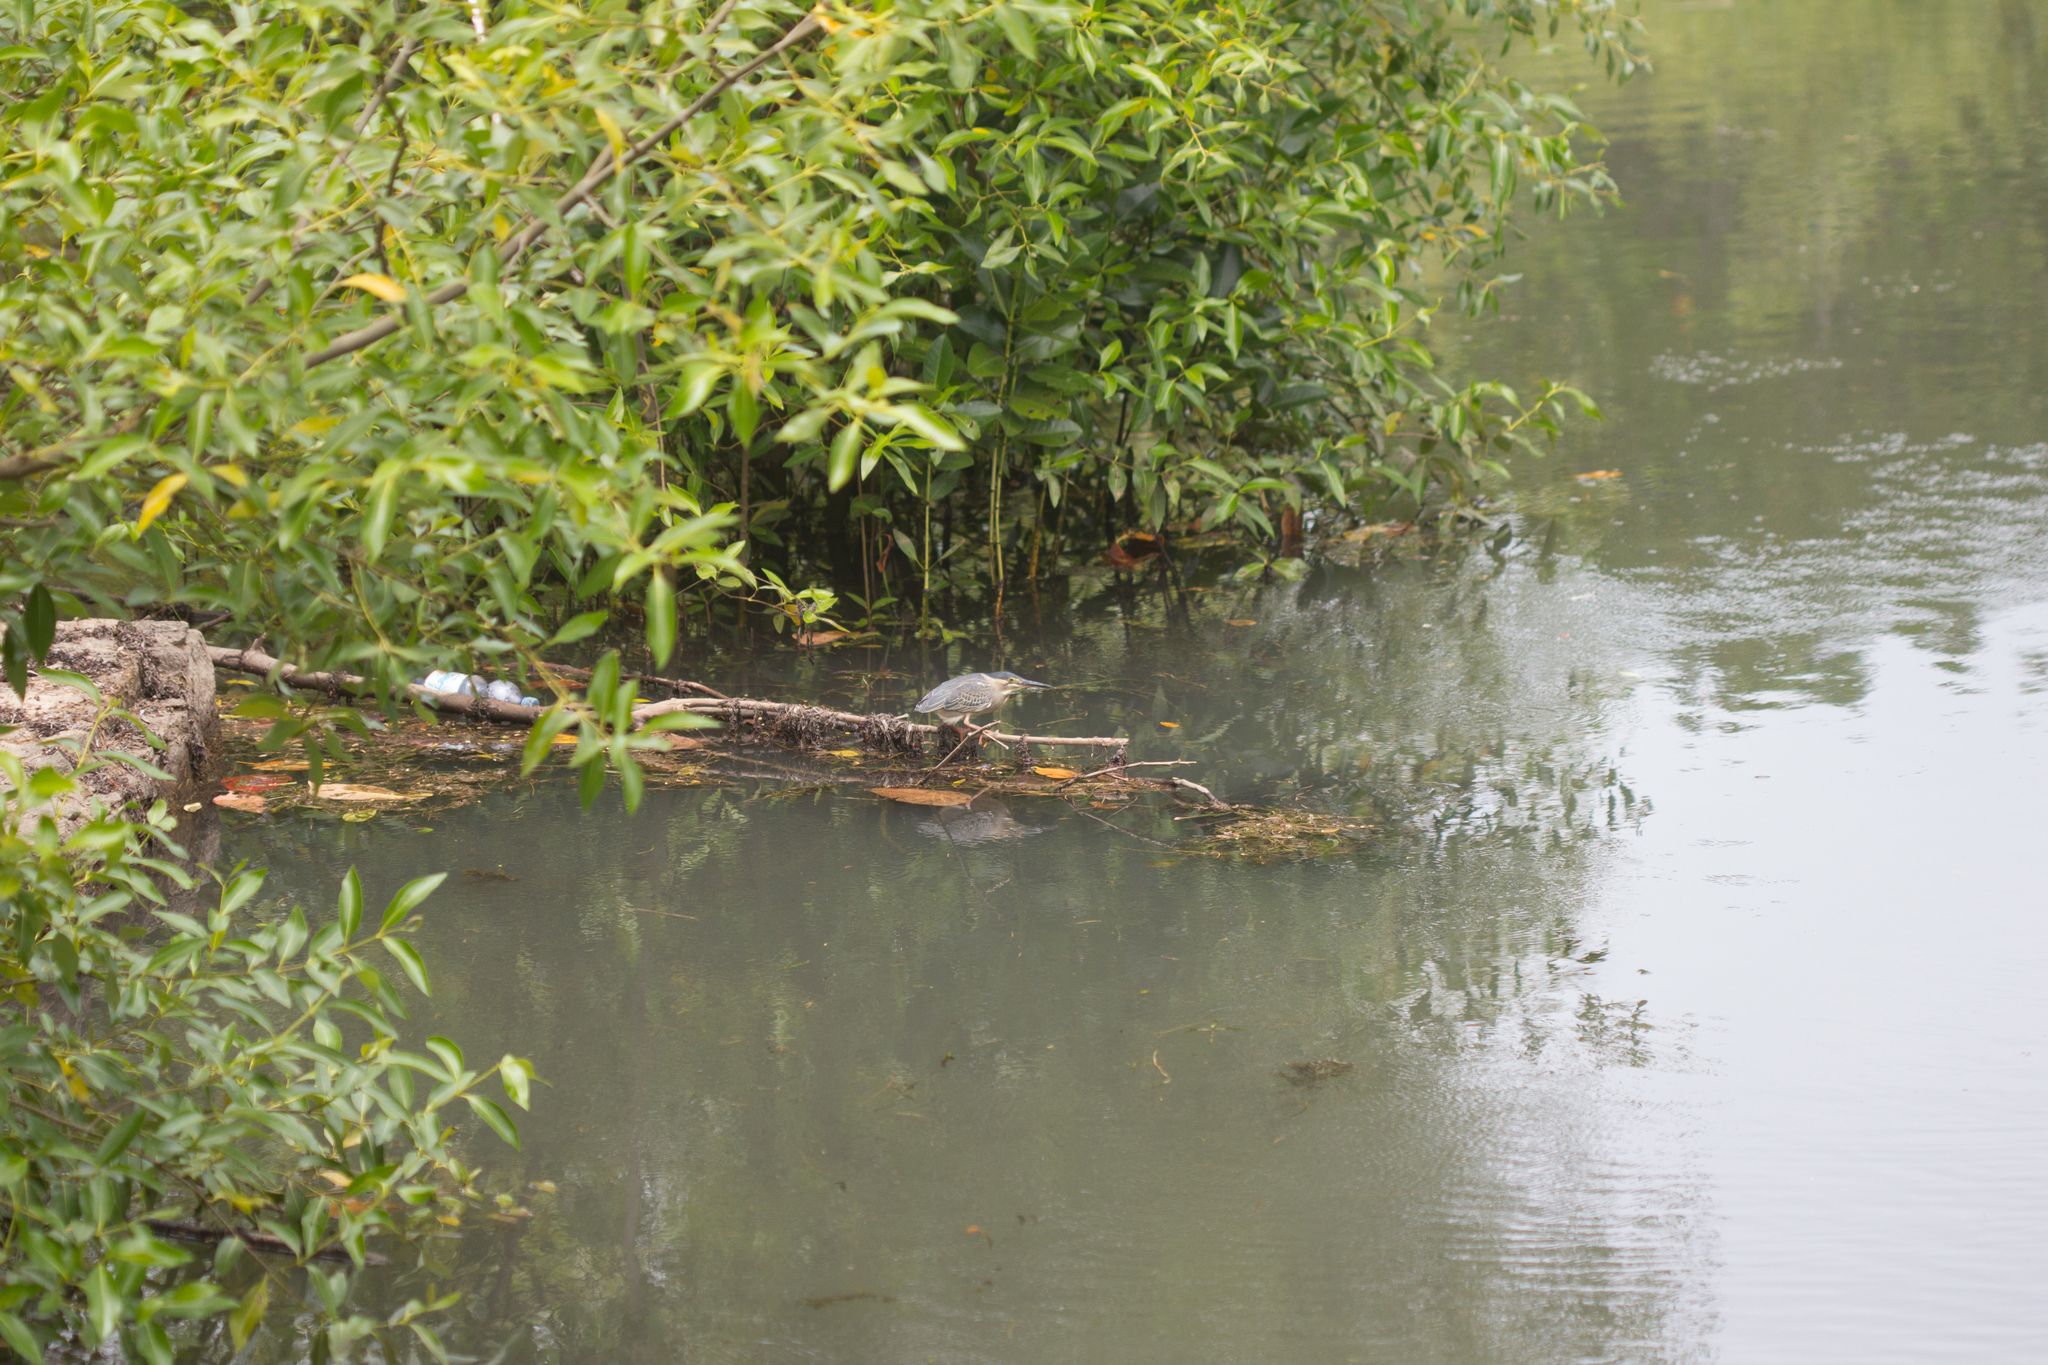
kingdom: Animalia
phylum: Chordata
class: Aves
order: Pelecaniformes
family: Ardeidae
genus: Butorides
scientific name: Butorides striata
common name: Striated heron
